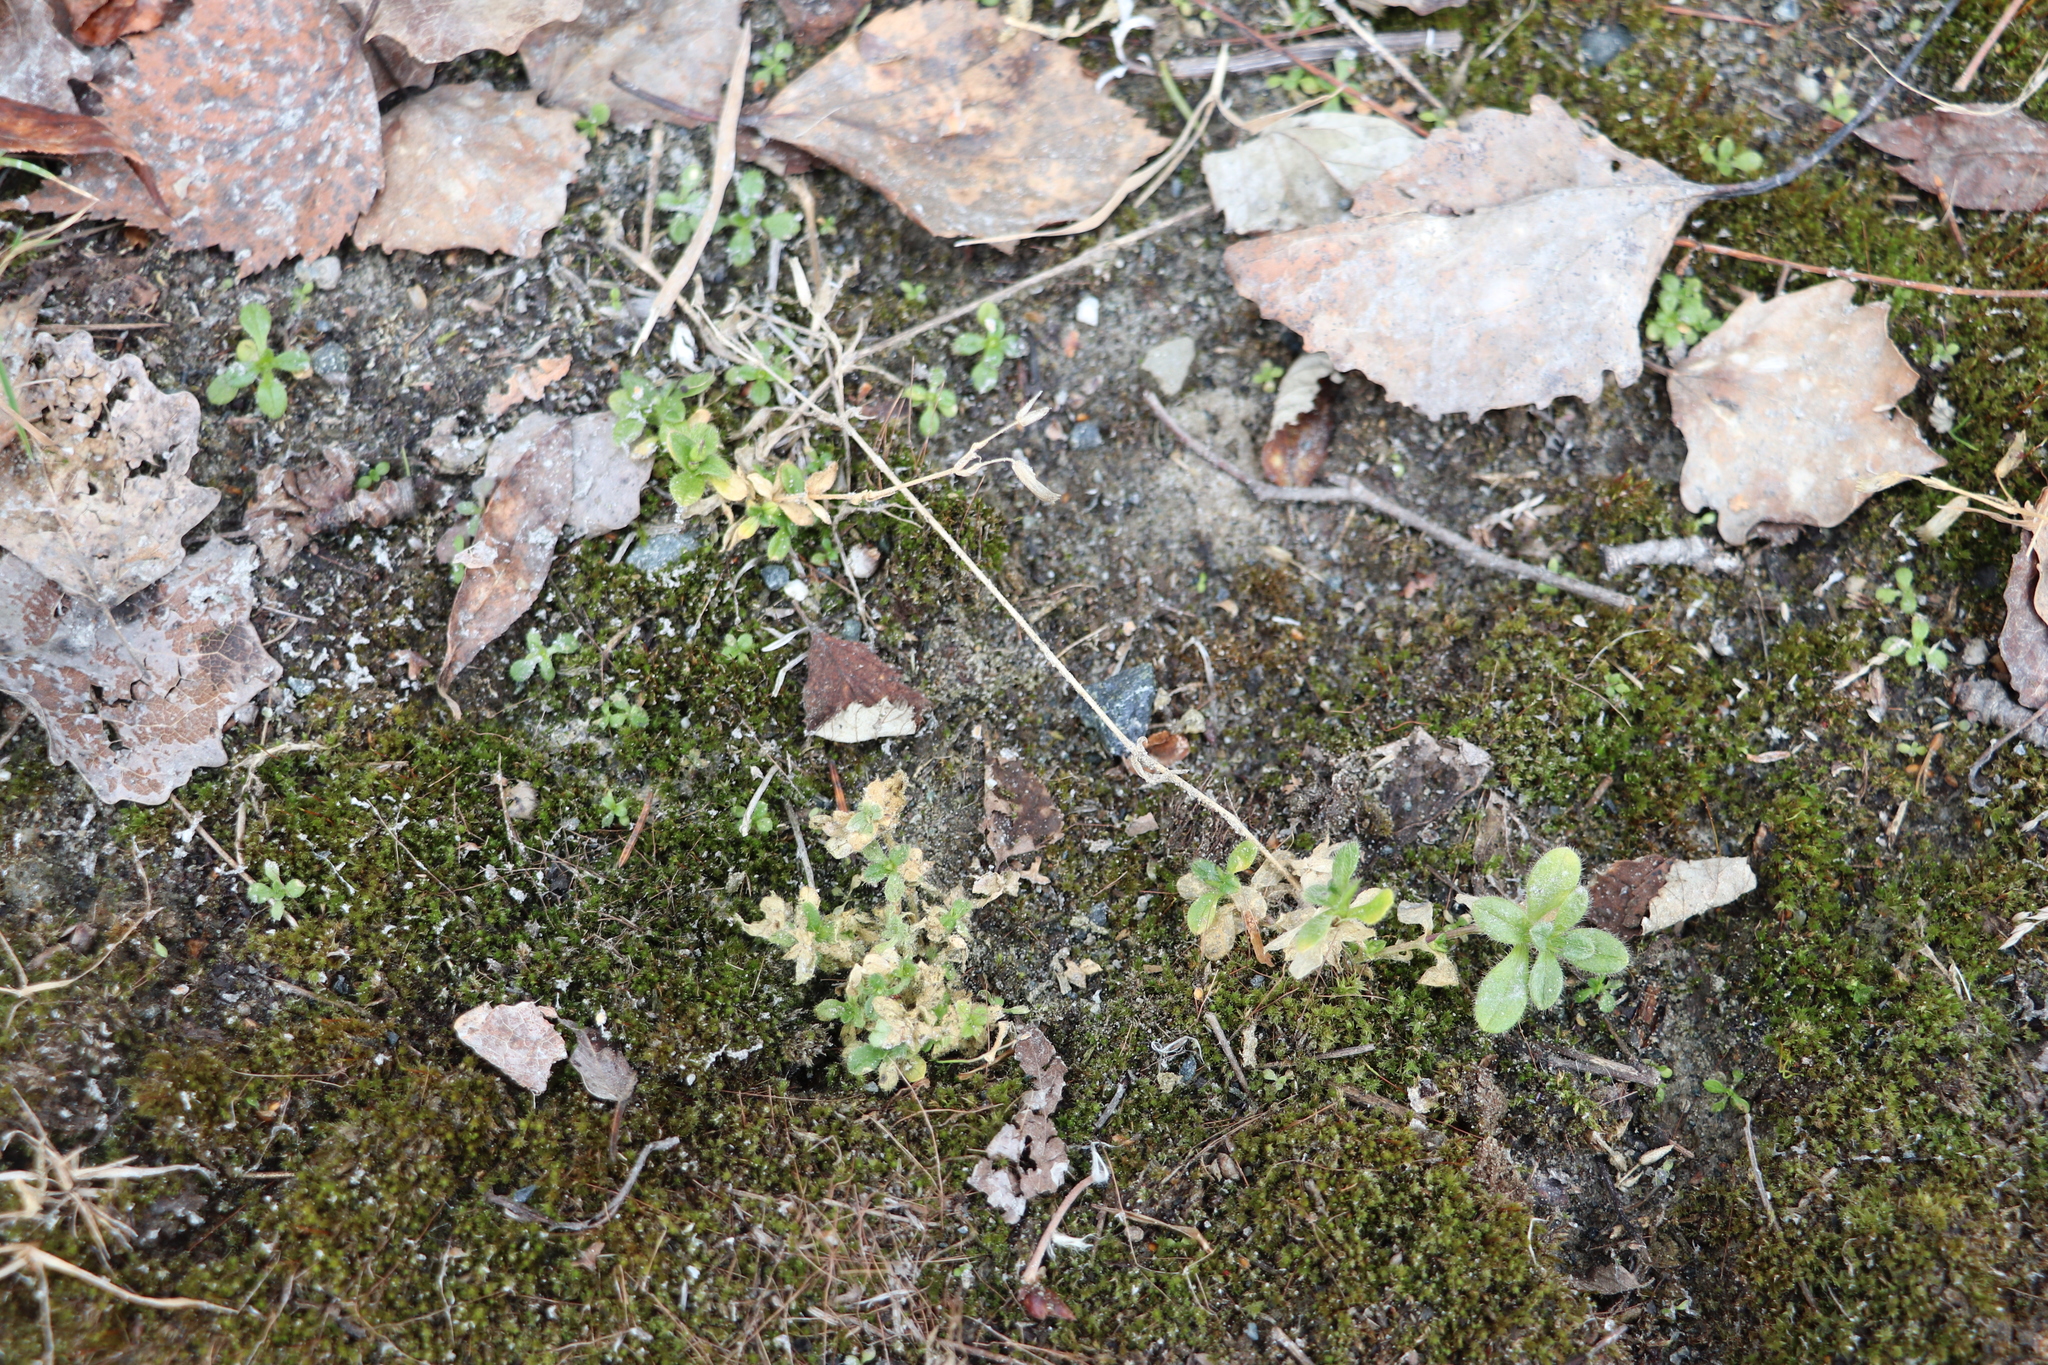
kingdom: Plantae
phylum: Tracheophyta
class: Magnoliopsida
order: Caryophyllales
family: Caryophyllaceae
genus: Cerastium
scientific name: Cerastium holosteoides
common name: Big chickweed
